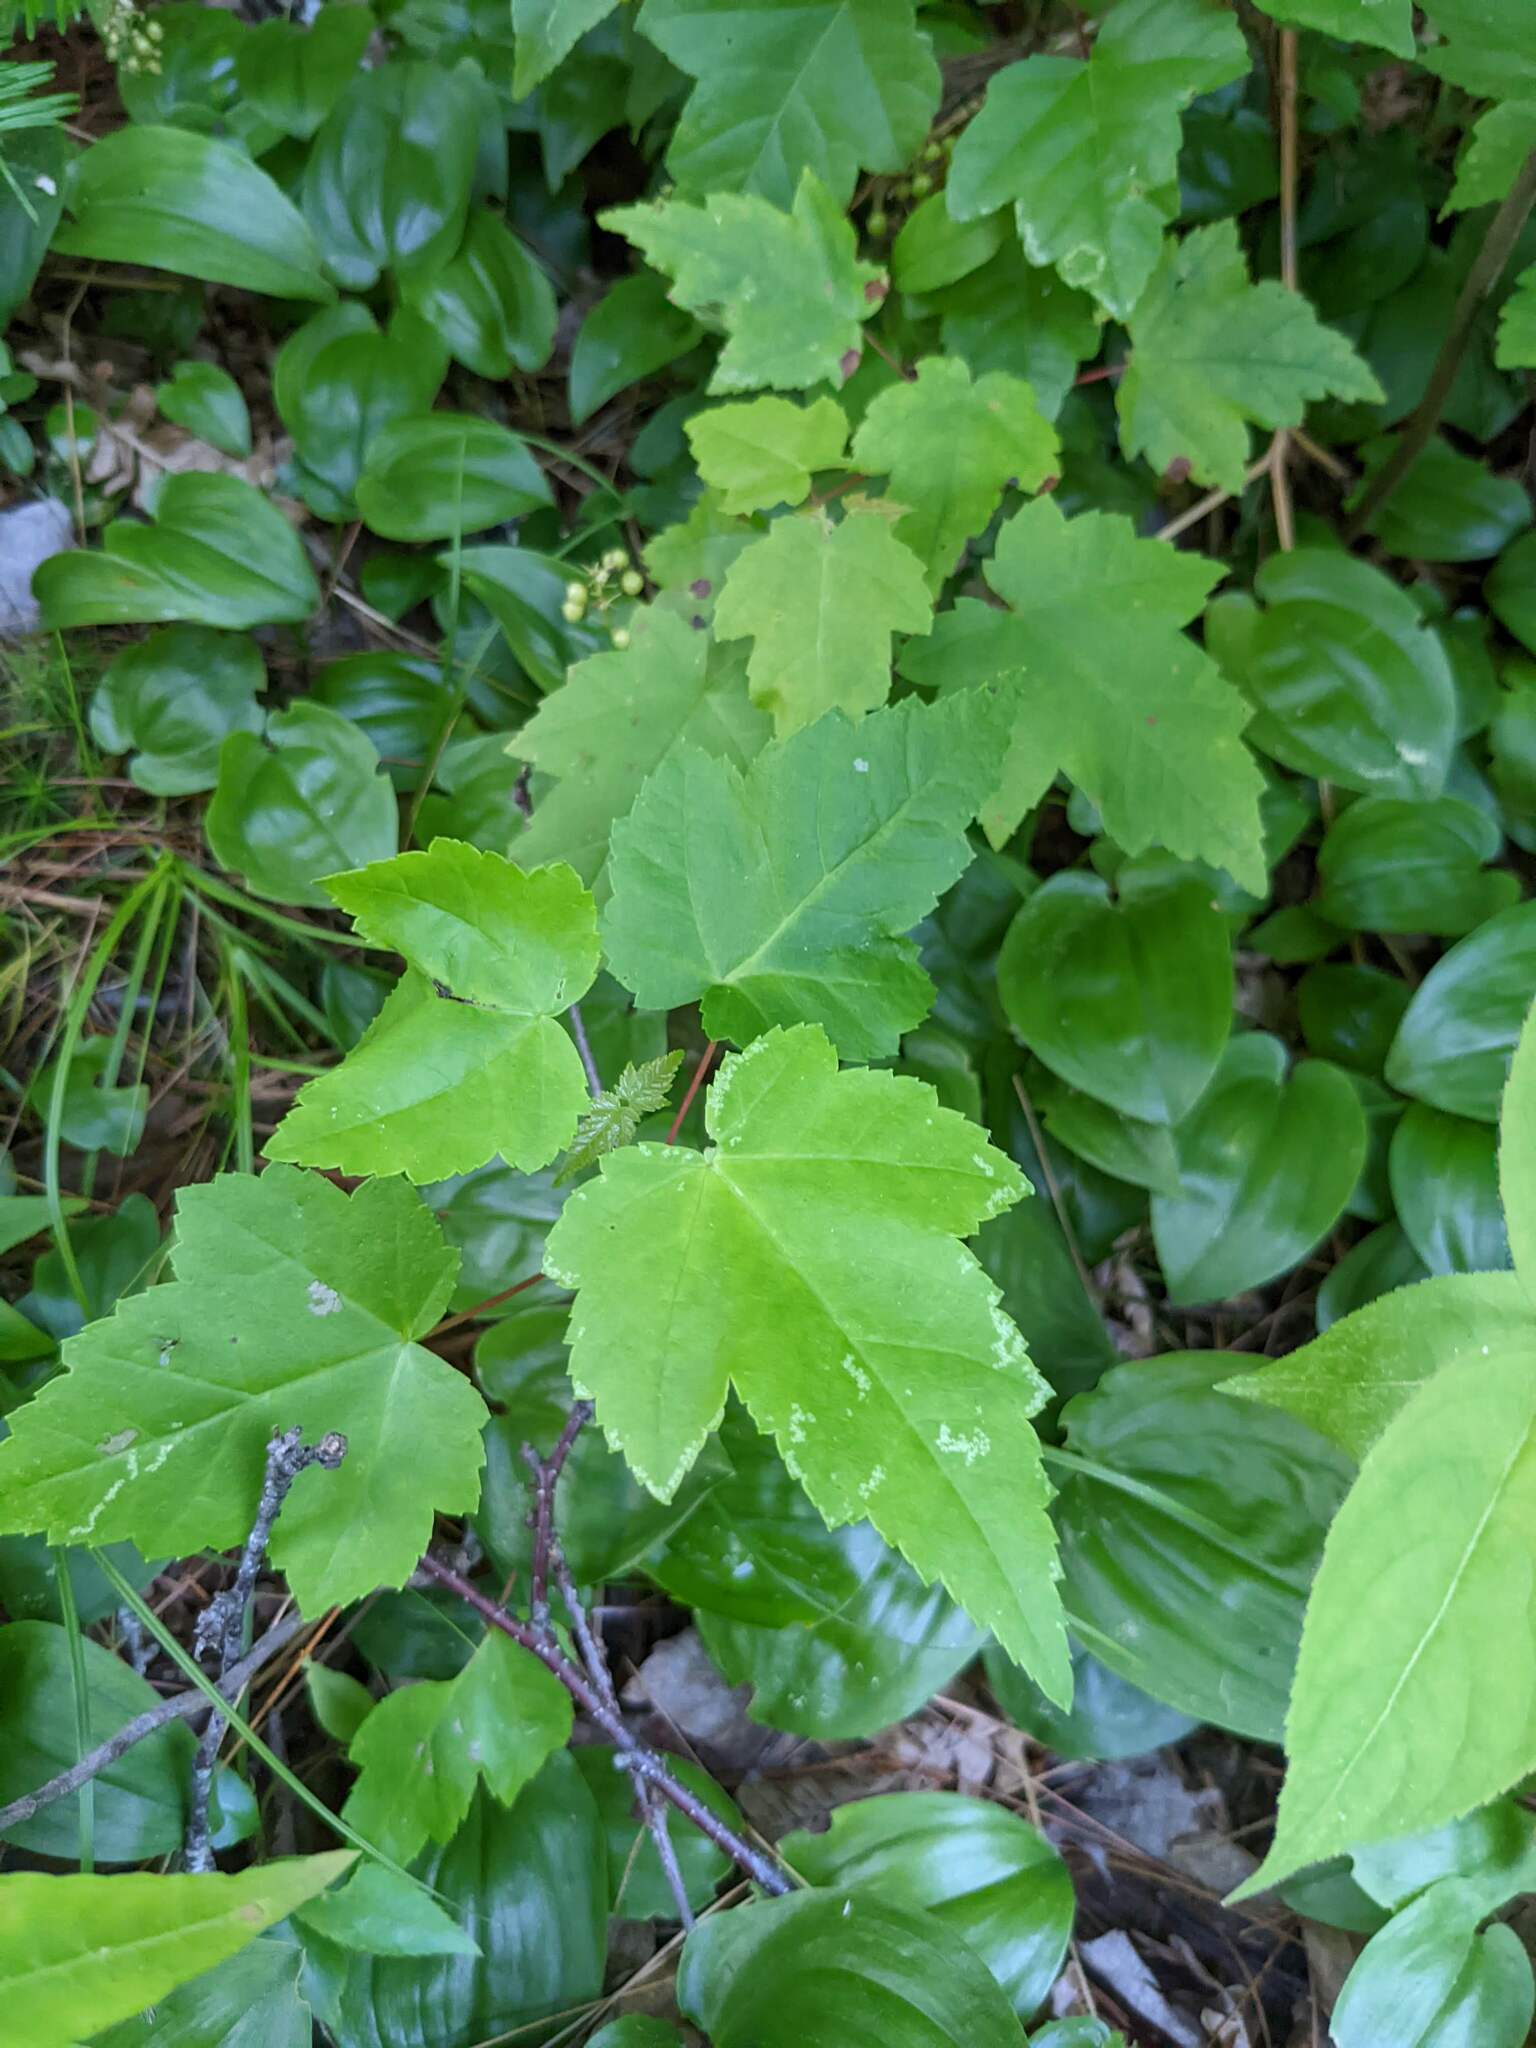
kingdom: Plantae
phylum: Tracheophyta
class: Magnoliopsida
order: Sapindales
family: Sapindaceae
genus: Acer
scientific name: Acer rubrum
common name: Red maple
